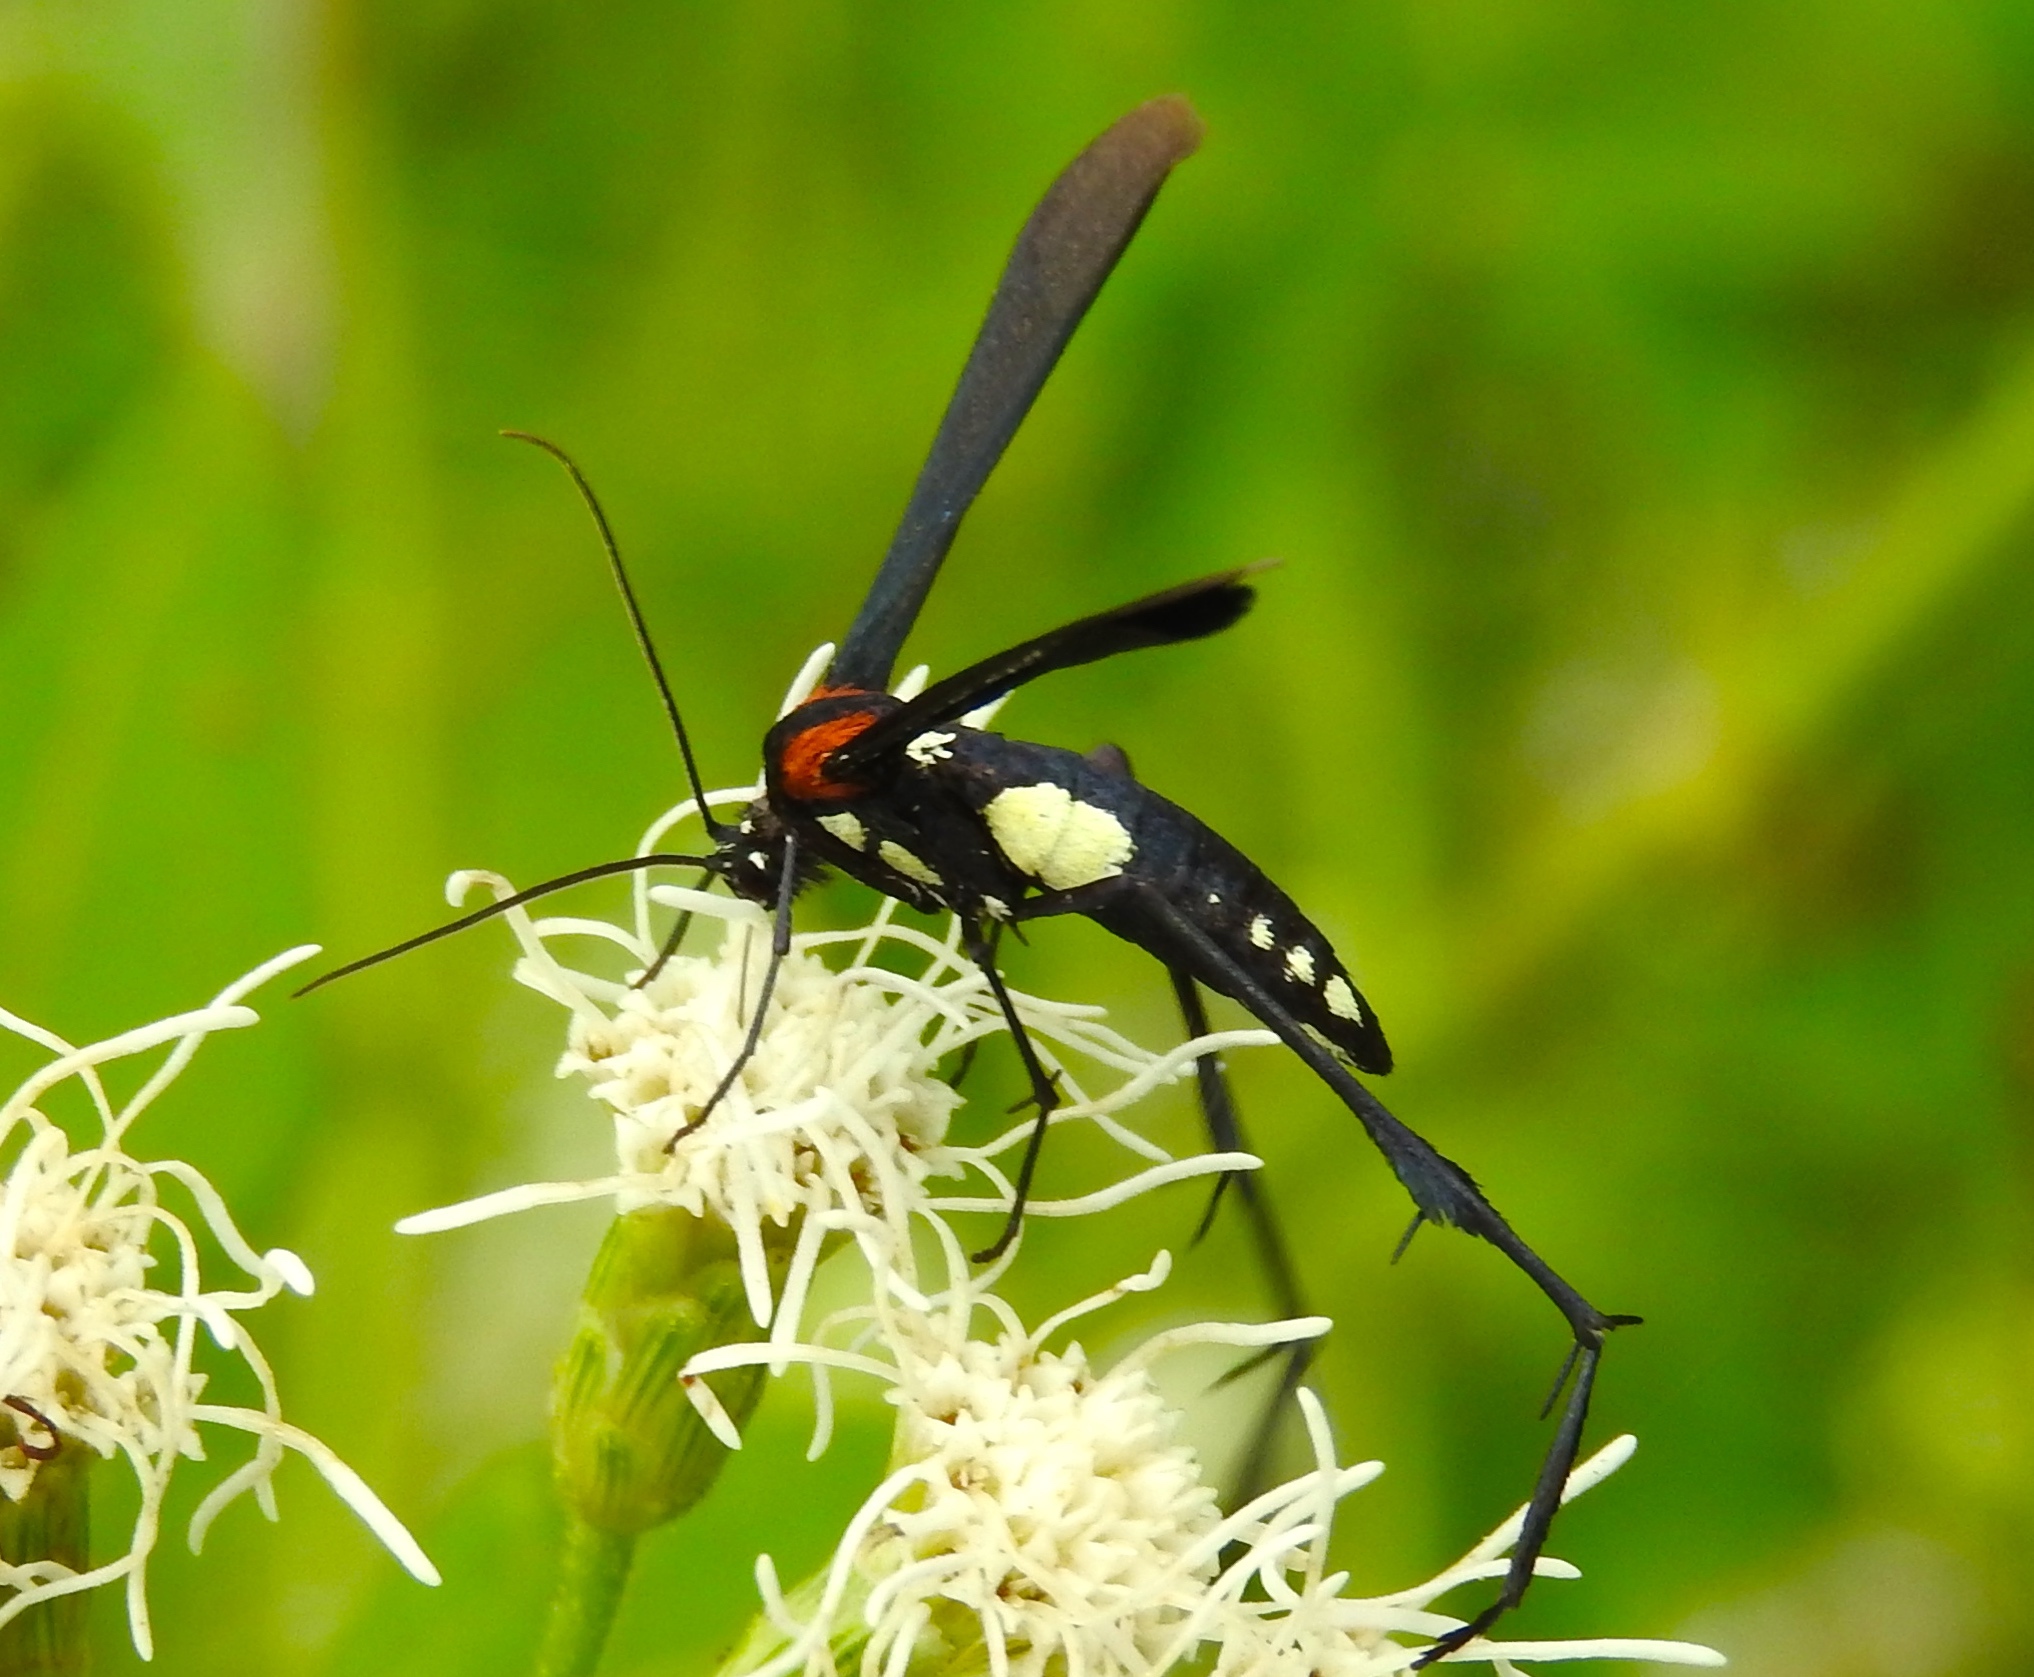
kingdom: Animalia
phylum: Arthropoda
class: Insecta
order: Lepidoptera
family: Pterophoridae
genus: Hellinsia
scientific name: Hellinsia chamelai
